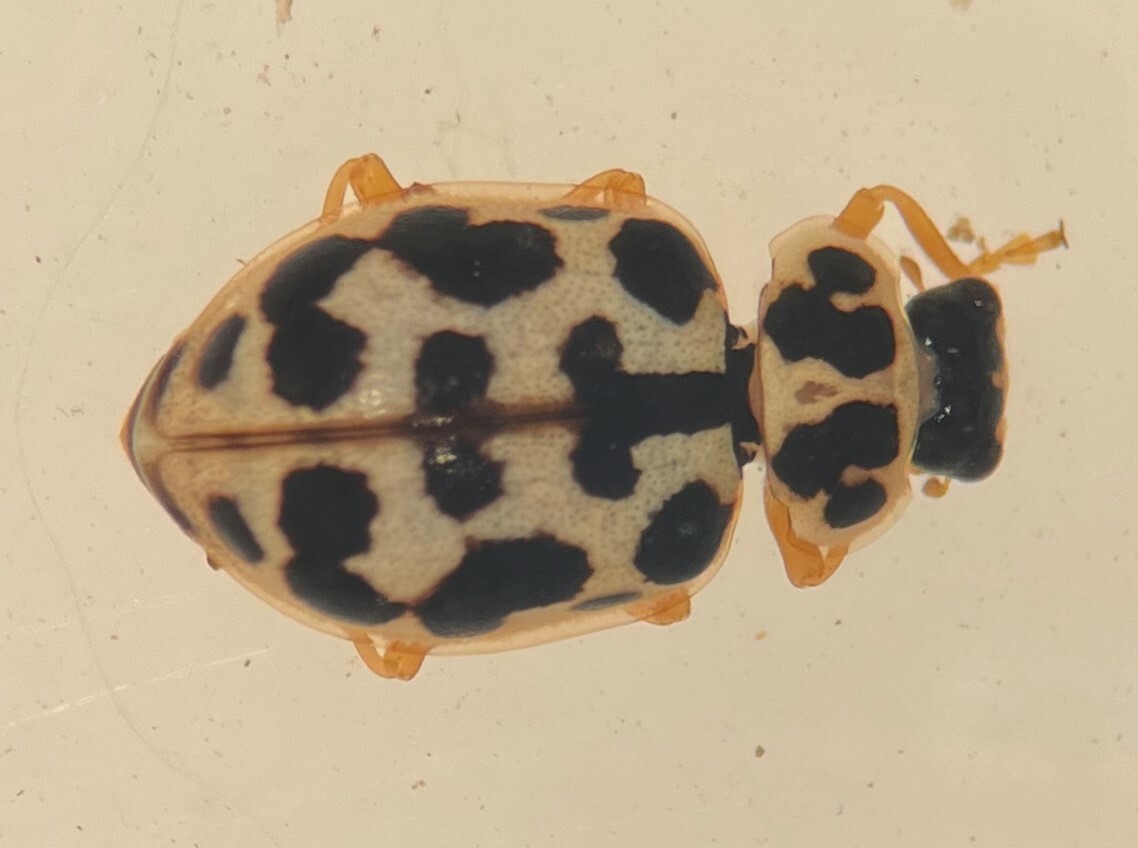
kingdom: Animalia
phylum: Arthropoda
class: Insecta
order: Coleoptera
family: Coccinellidae
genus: Anisosticta
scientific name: Anisosticta bitriangularis
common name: Marsh lady beetle
